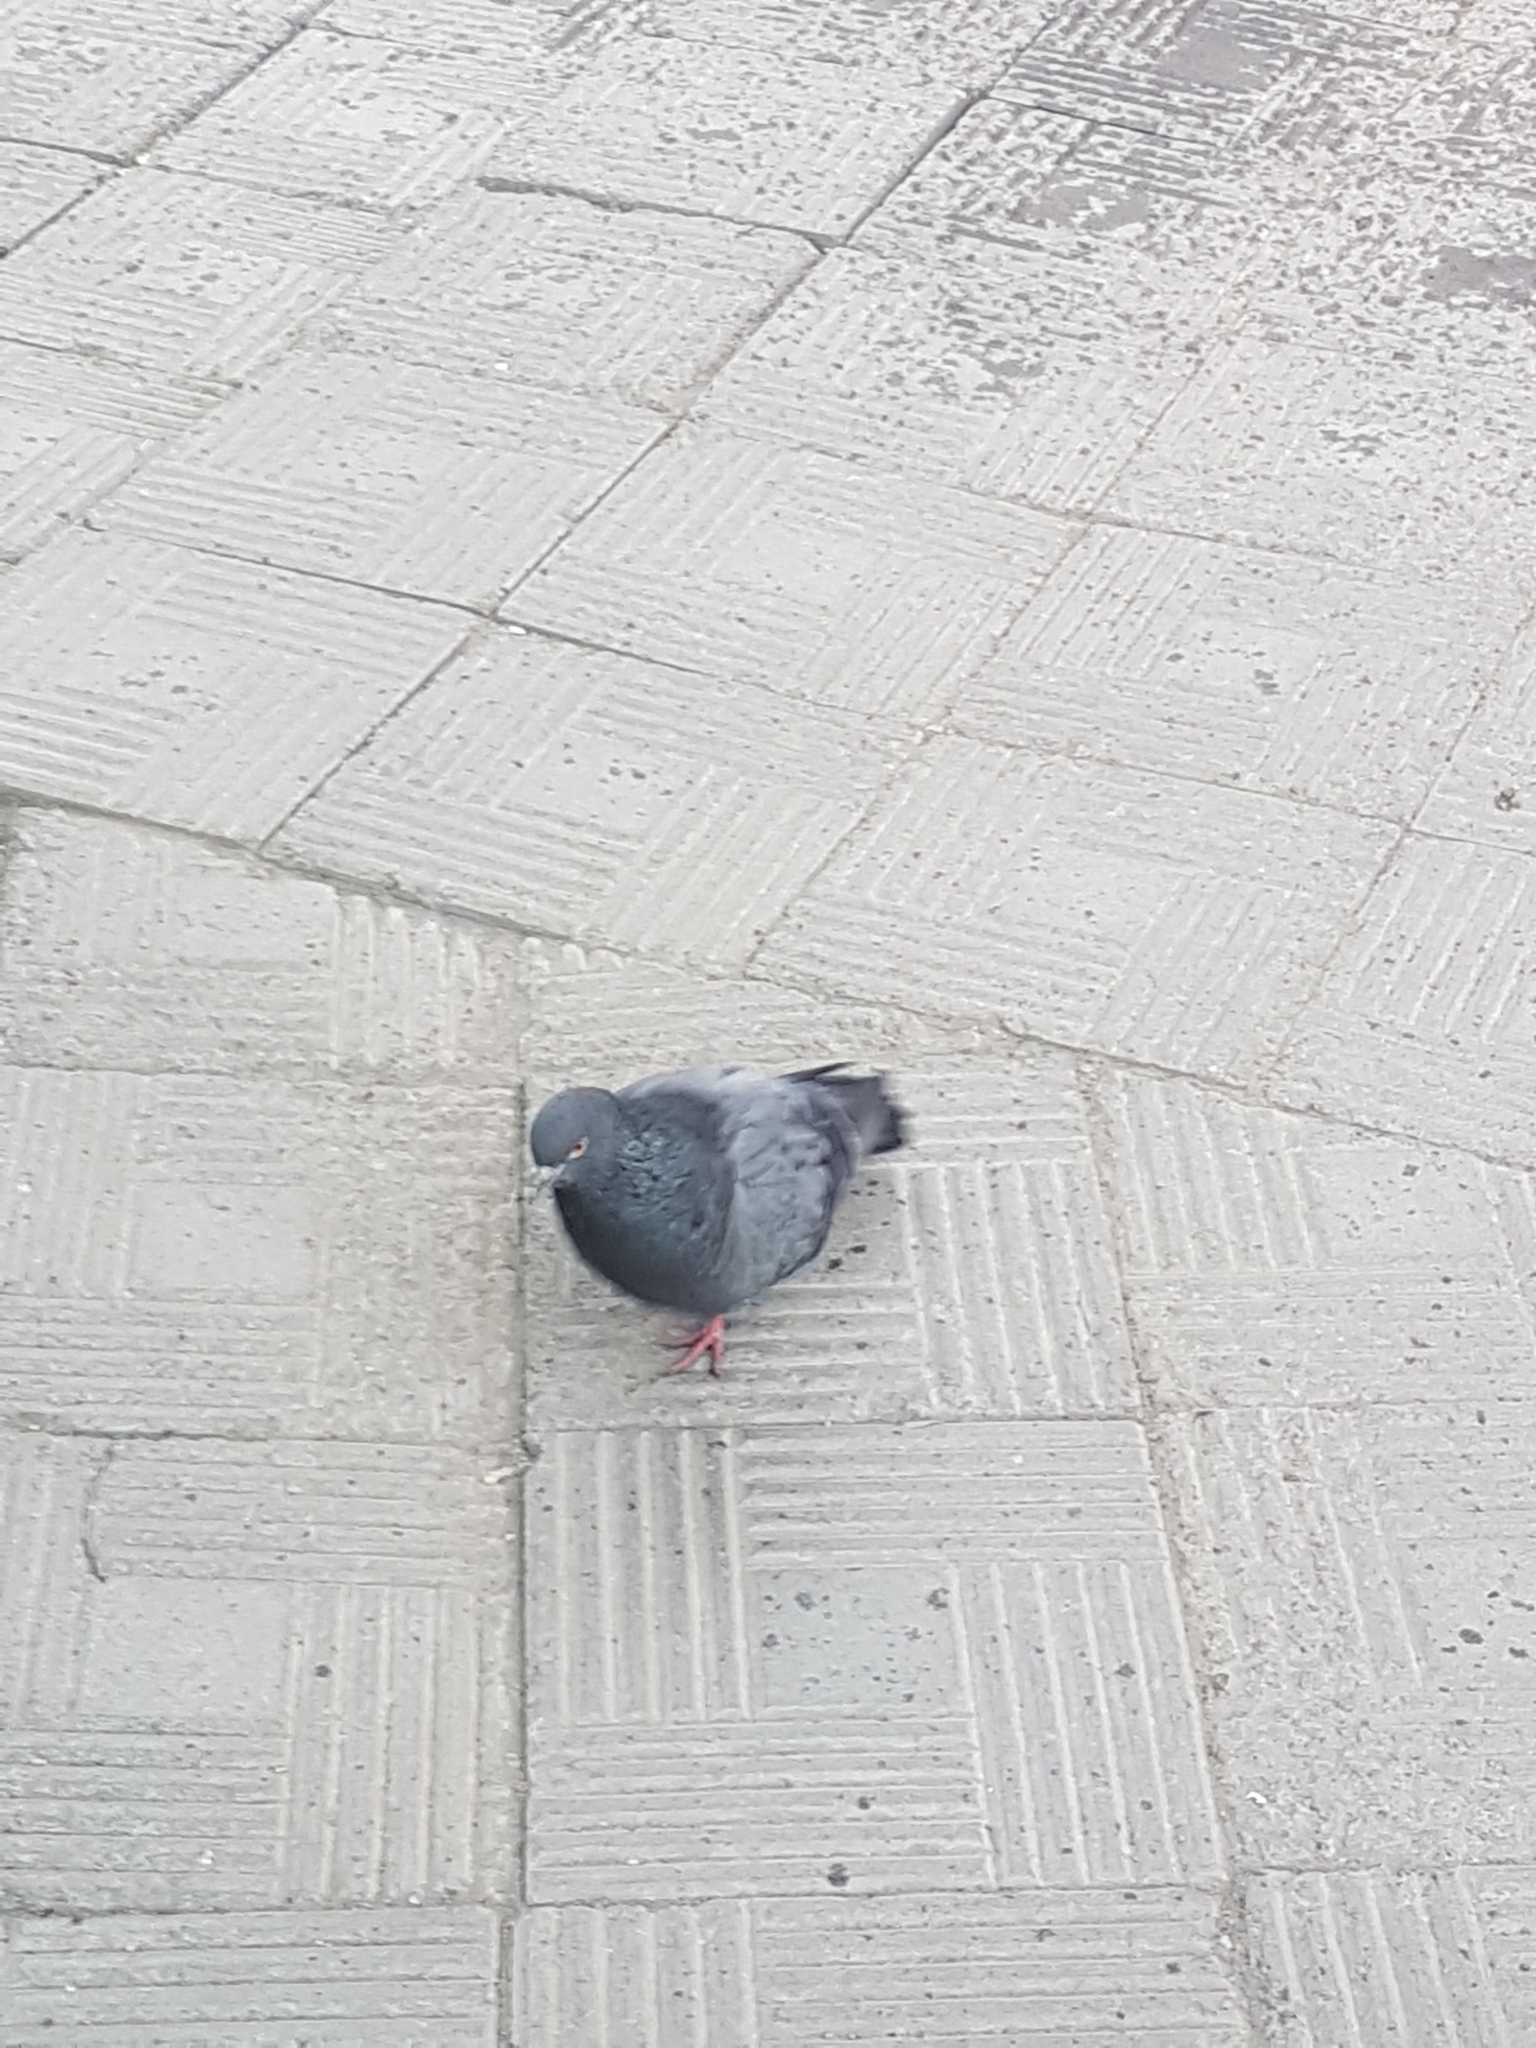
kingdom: Animalia
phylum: Chordata
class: Aves
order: Columbiformes
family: Columbidae
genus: Columba
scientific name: Columba livia
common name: Rock pigeon
